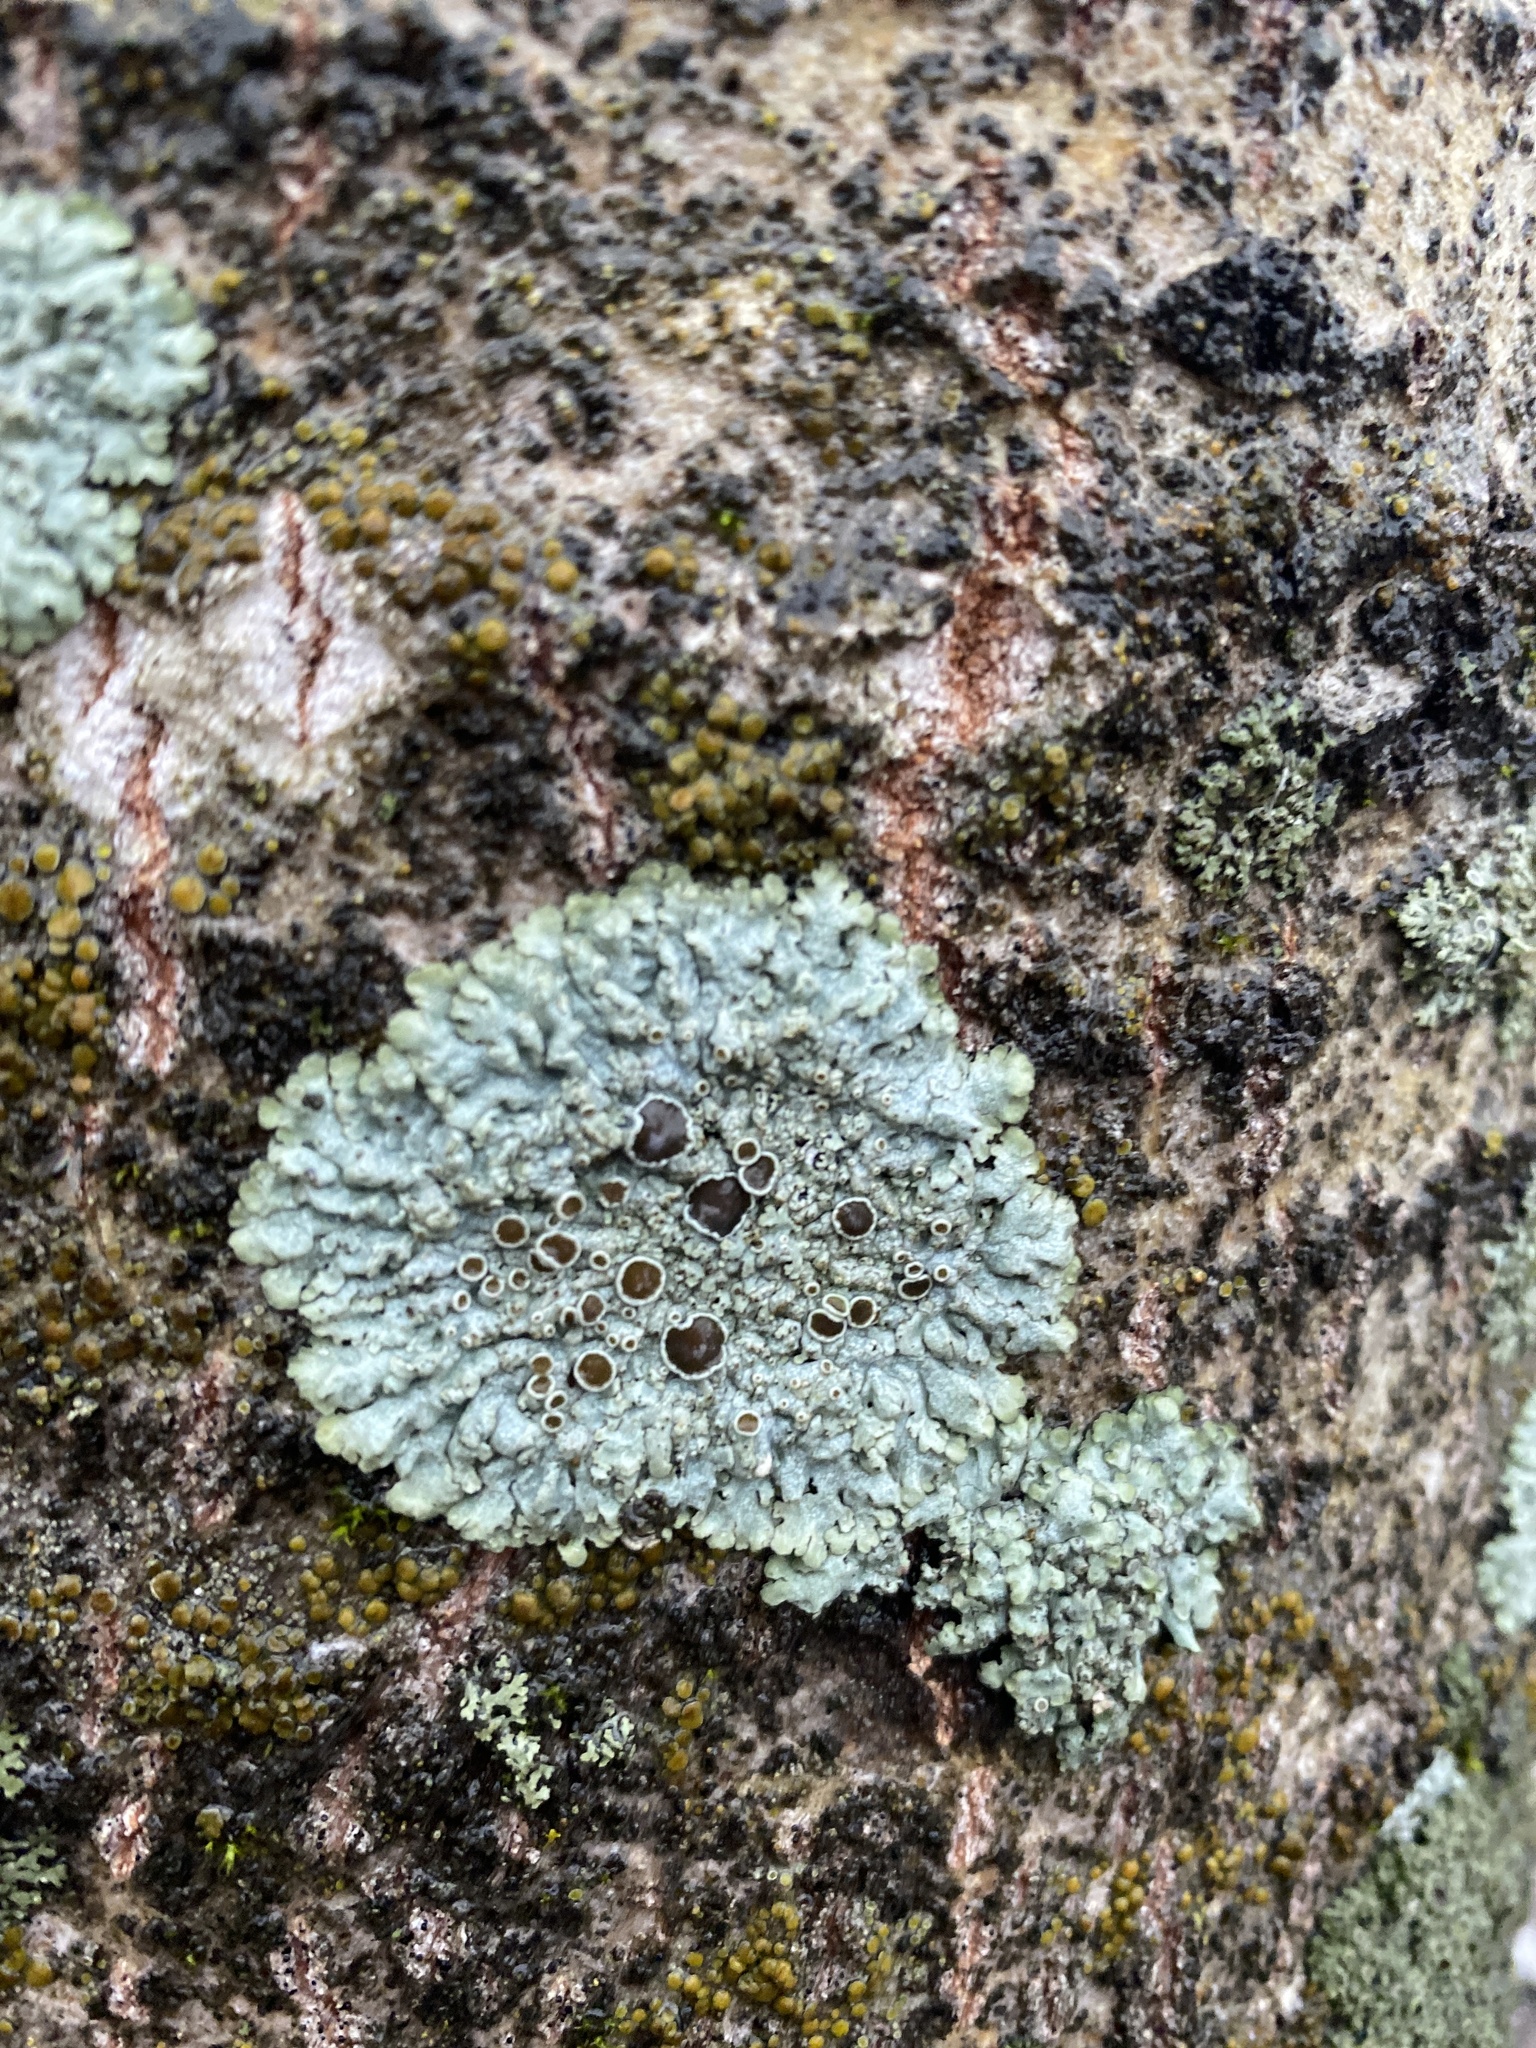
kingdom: Fungi
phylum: Ascomycota
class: Lecanoromycetes
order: Caliciales
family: Physciaceae
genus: Physcia
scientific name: Physcia aipolia
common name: Hoary rosette lichen
